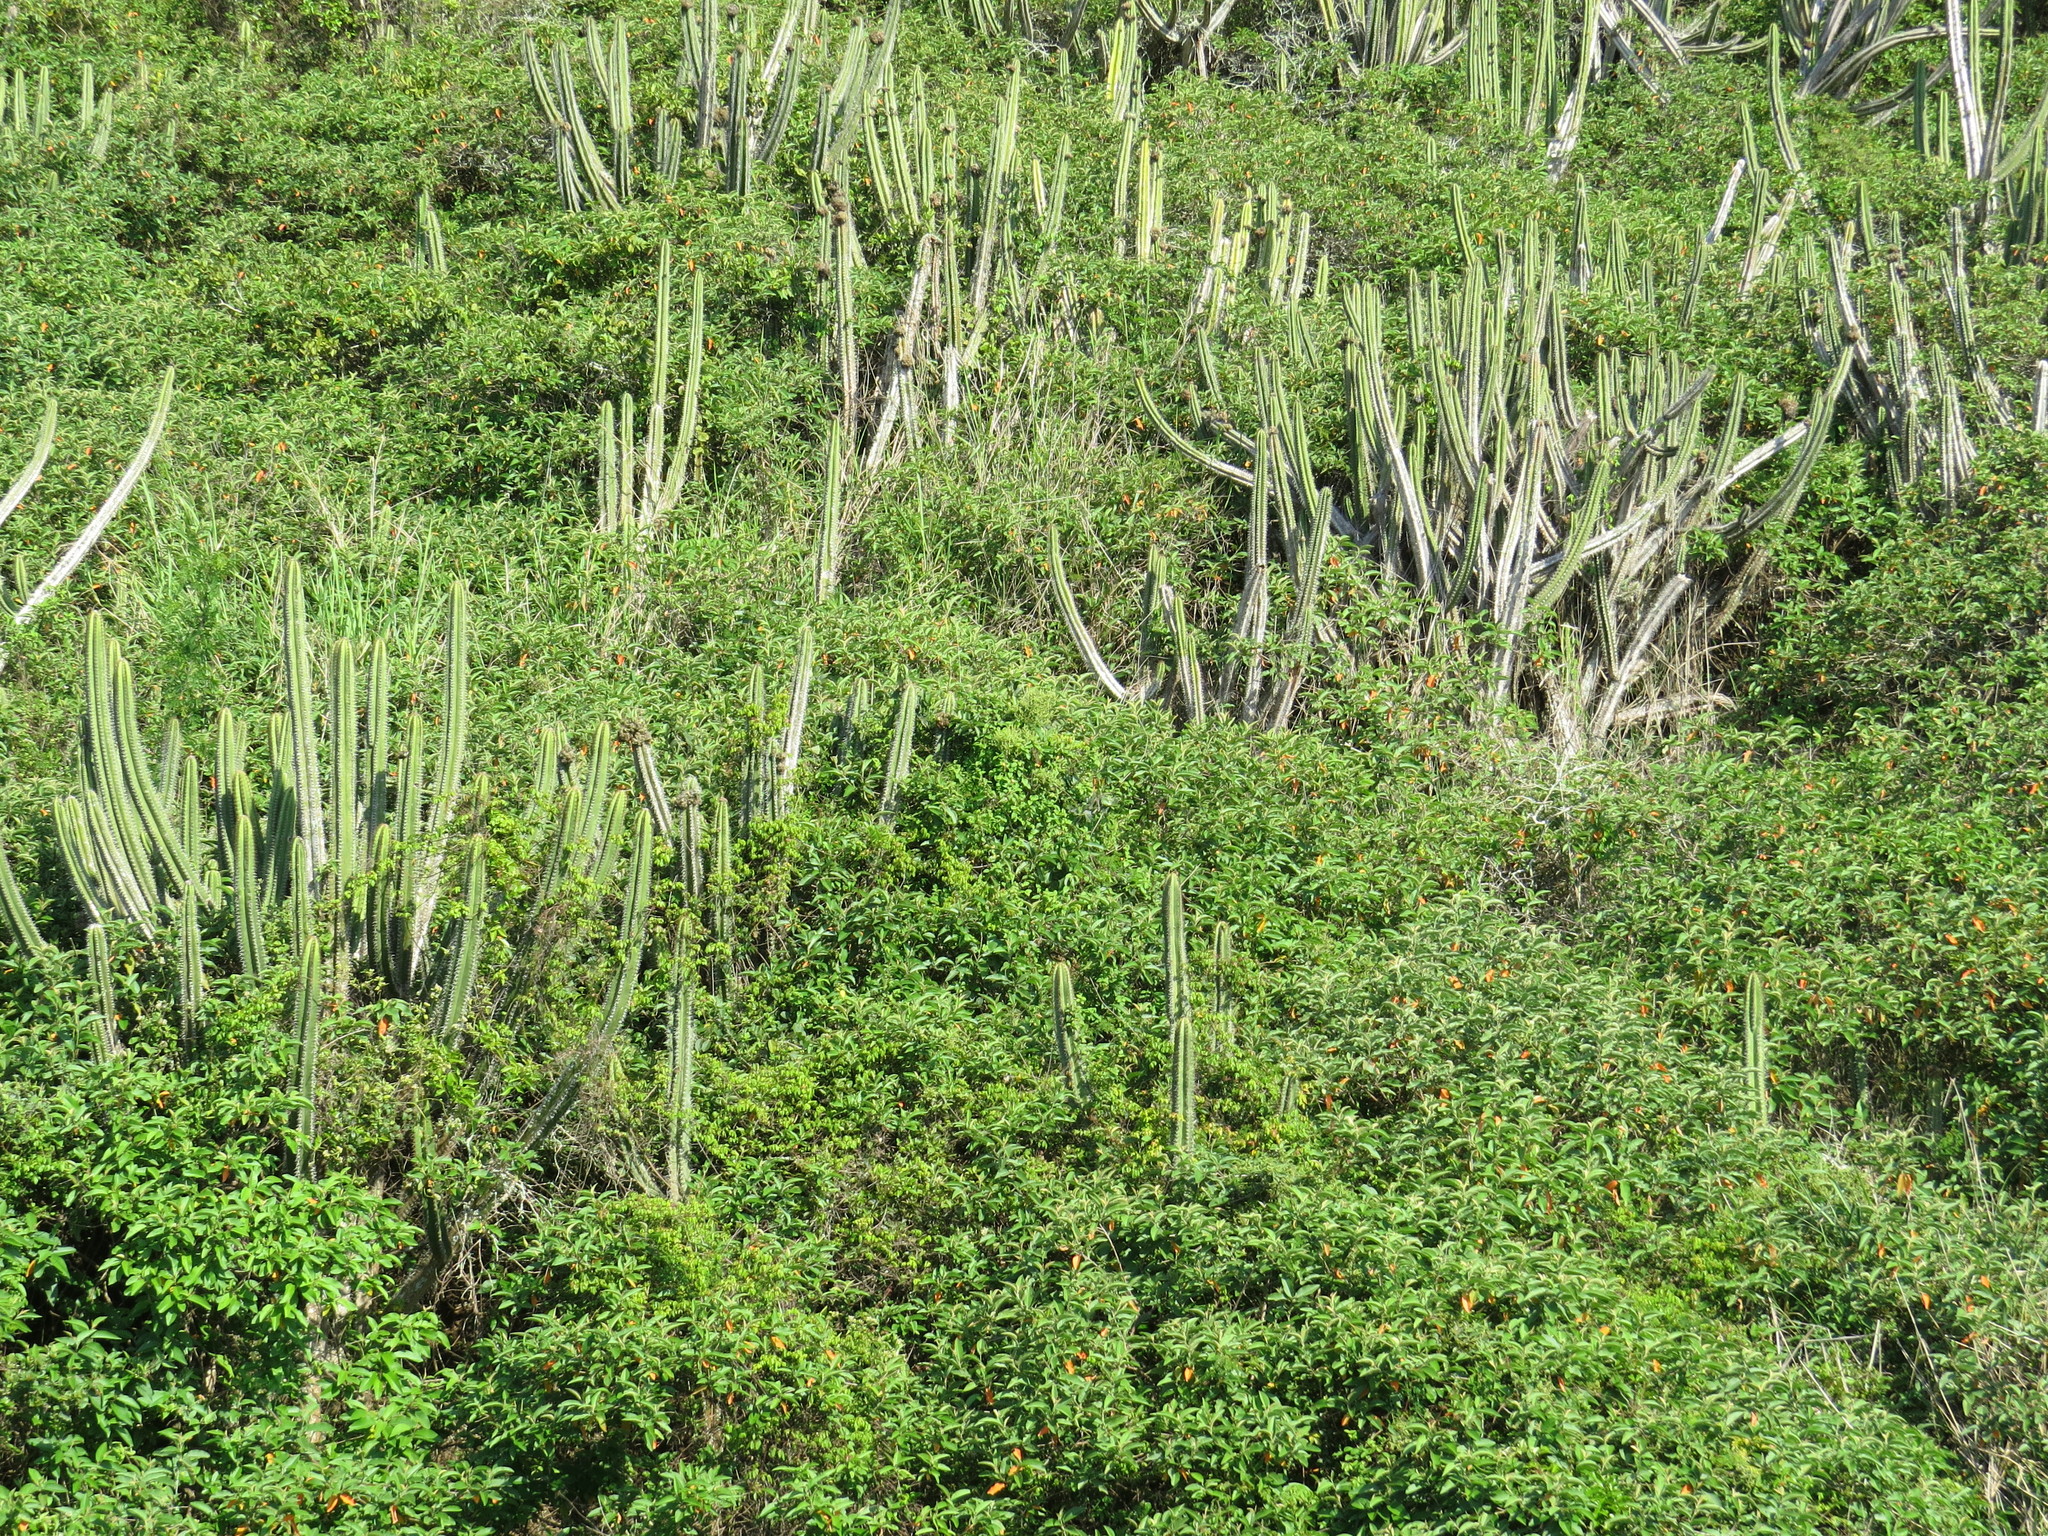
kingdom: Plantae
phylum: Tracheophyta
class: Magnoliopsida
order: Caryophyllales
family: Cactaceae
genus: Pilosocereus
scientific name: Pilosocereus arrabidae
